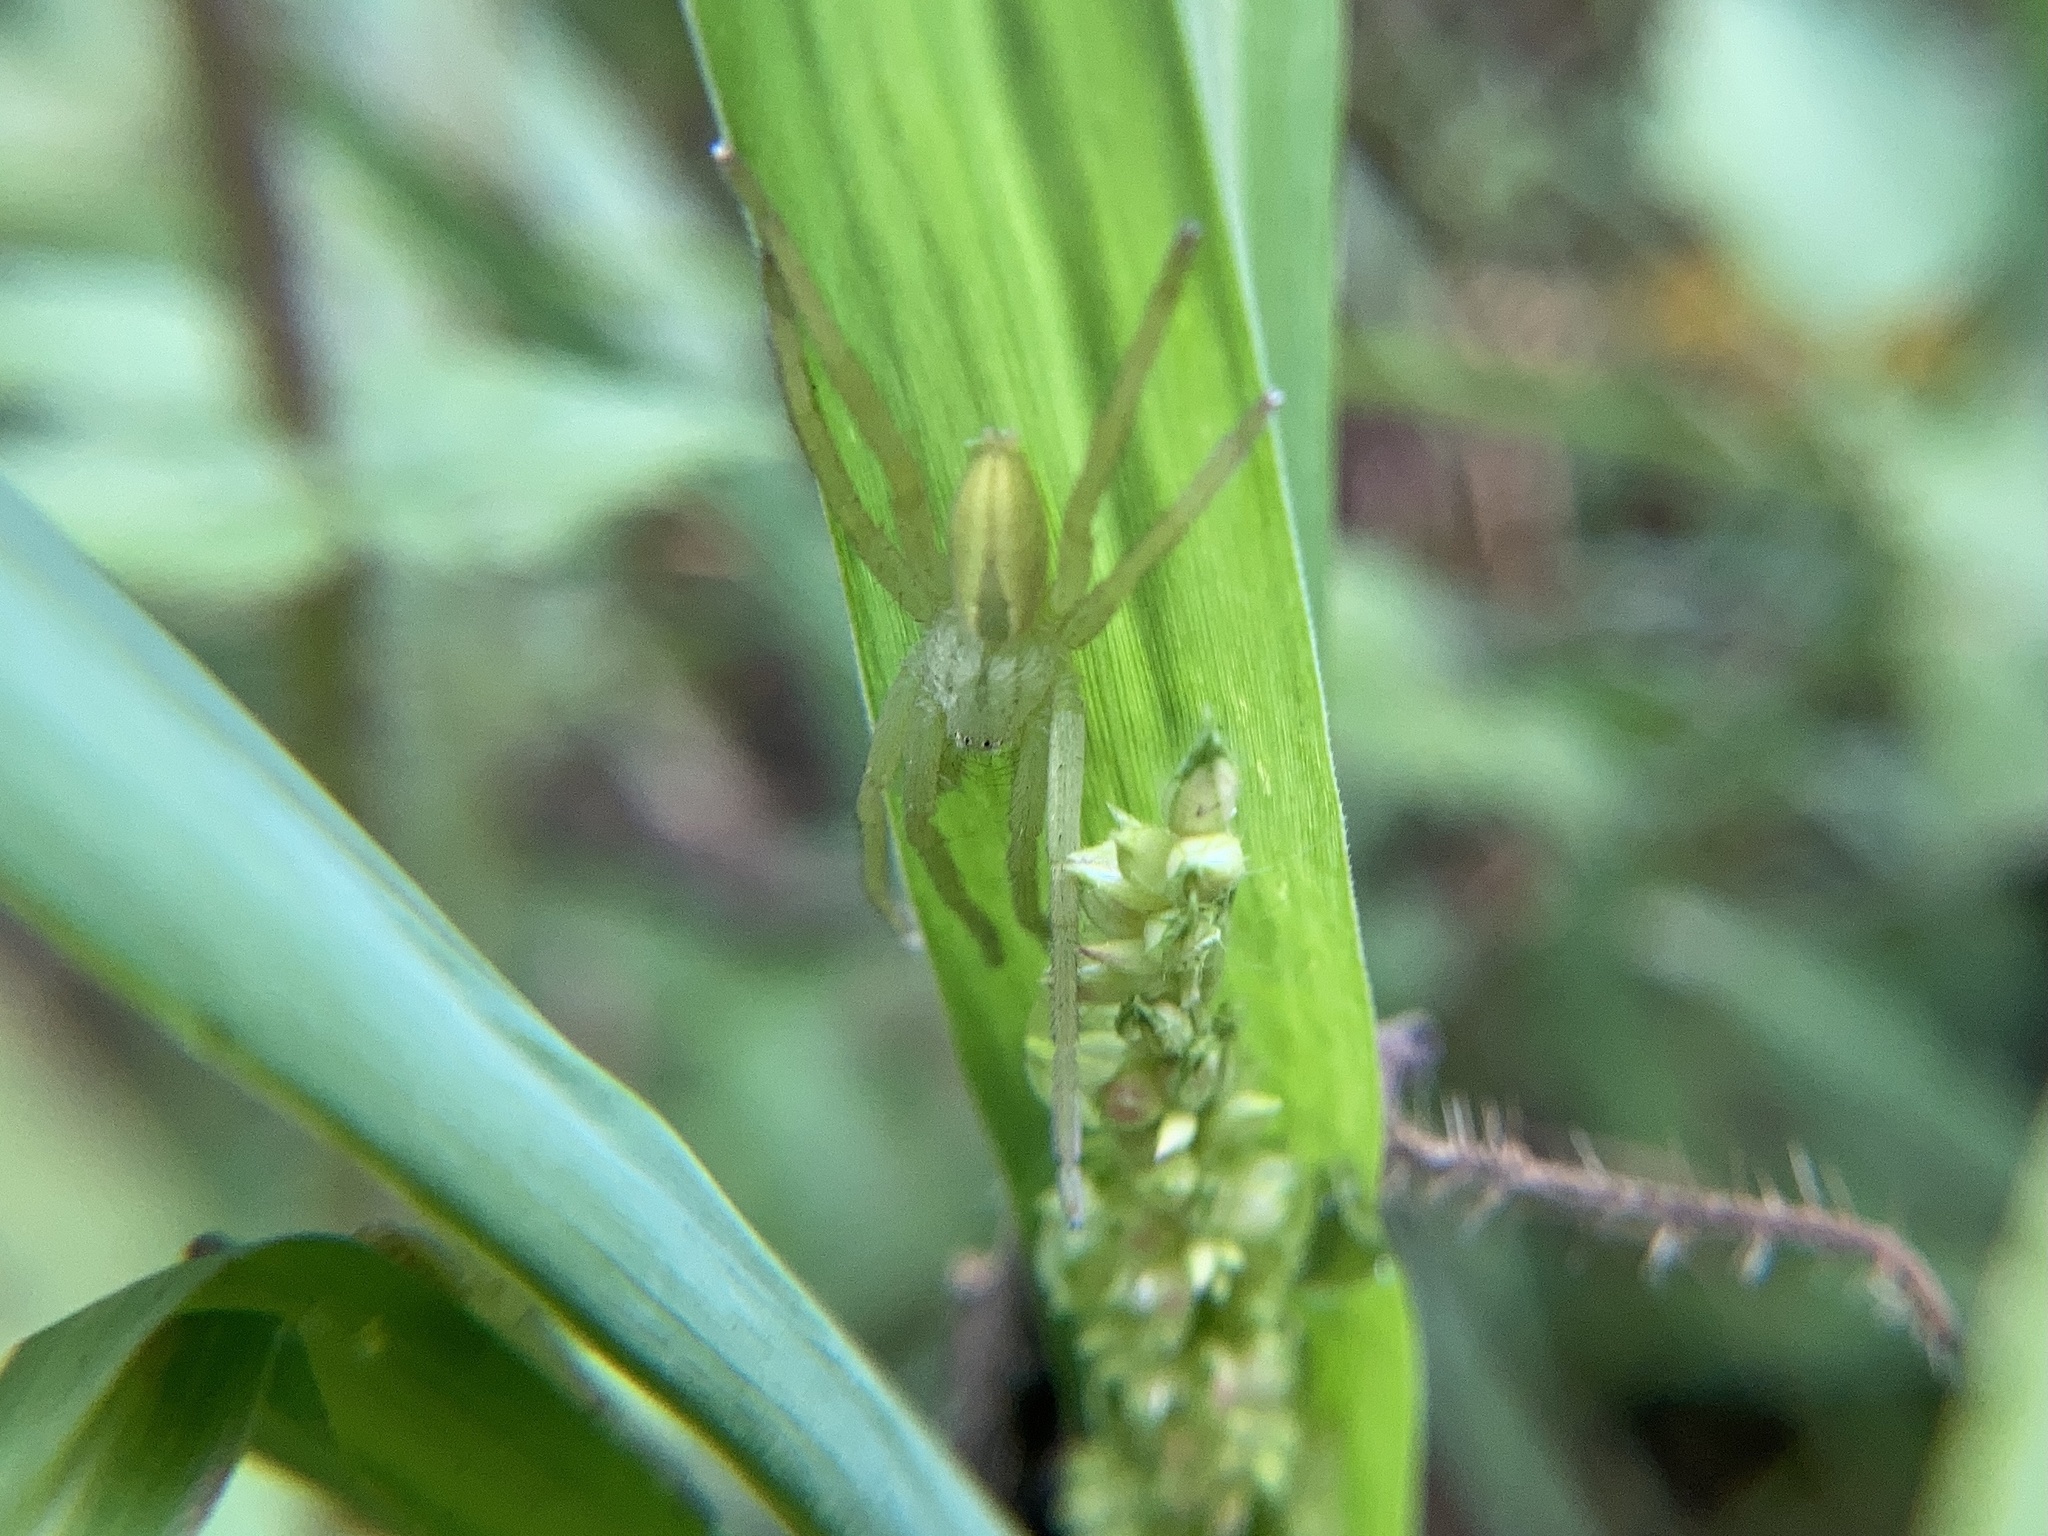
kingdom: Animalia
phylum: Arthropoda
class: Arachnida
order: Araneae
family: Sparassidae
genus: Micrommata
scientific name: Micrommata virescens
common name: Green spider
